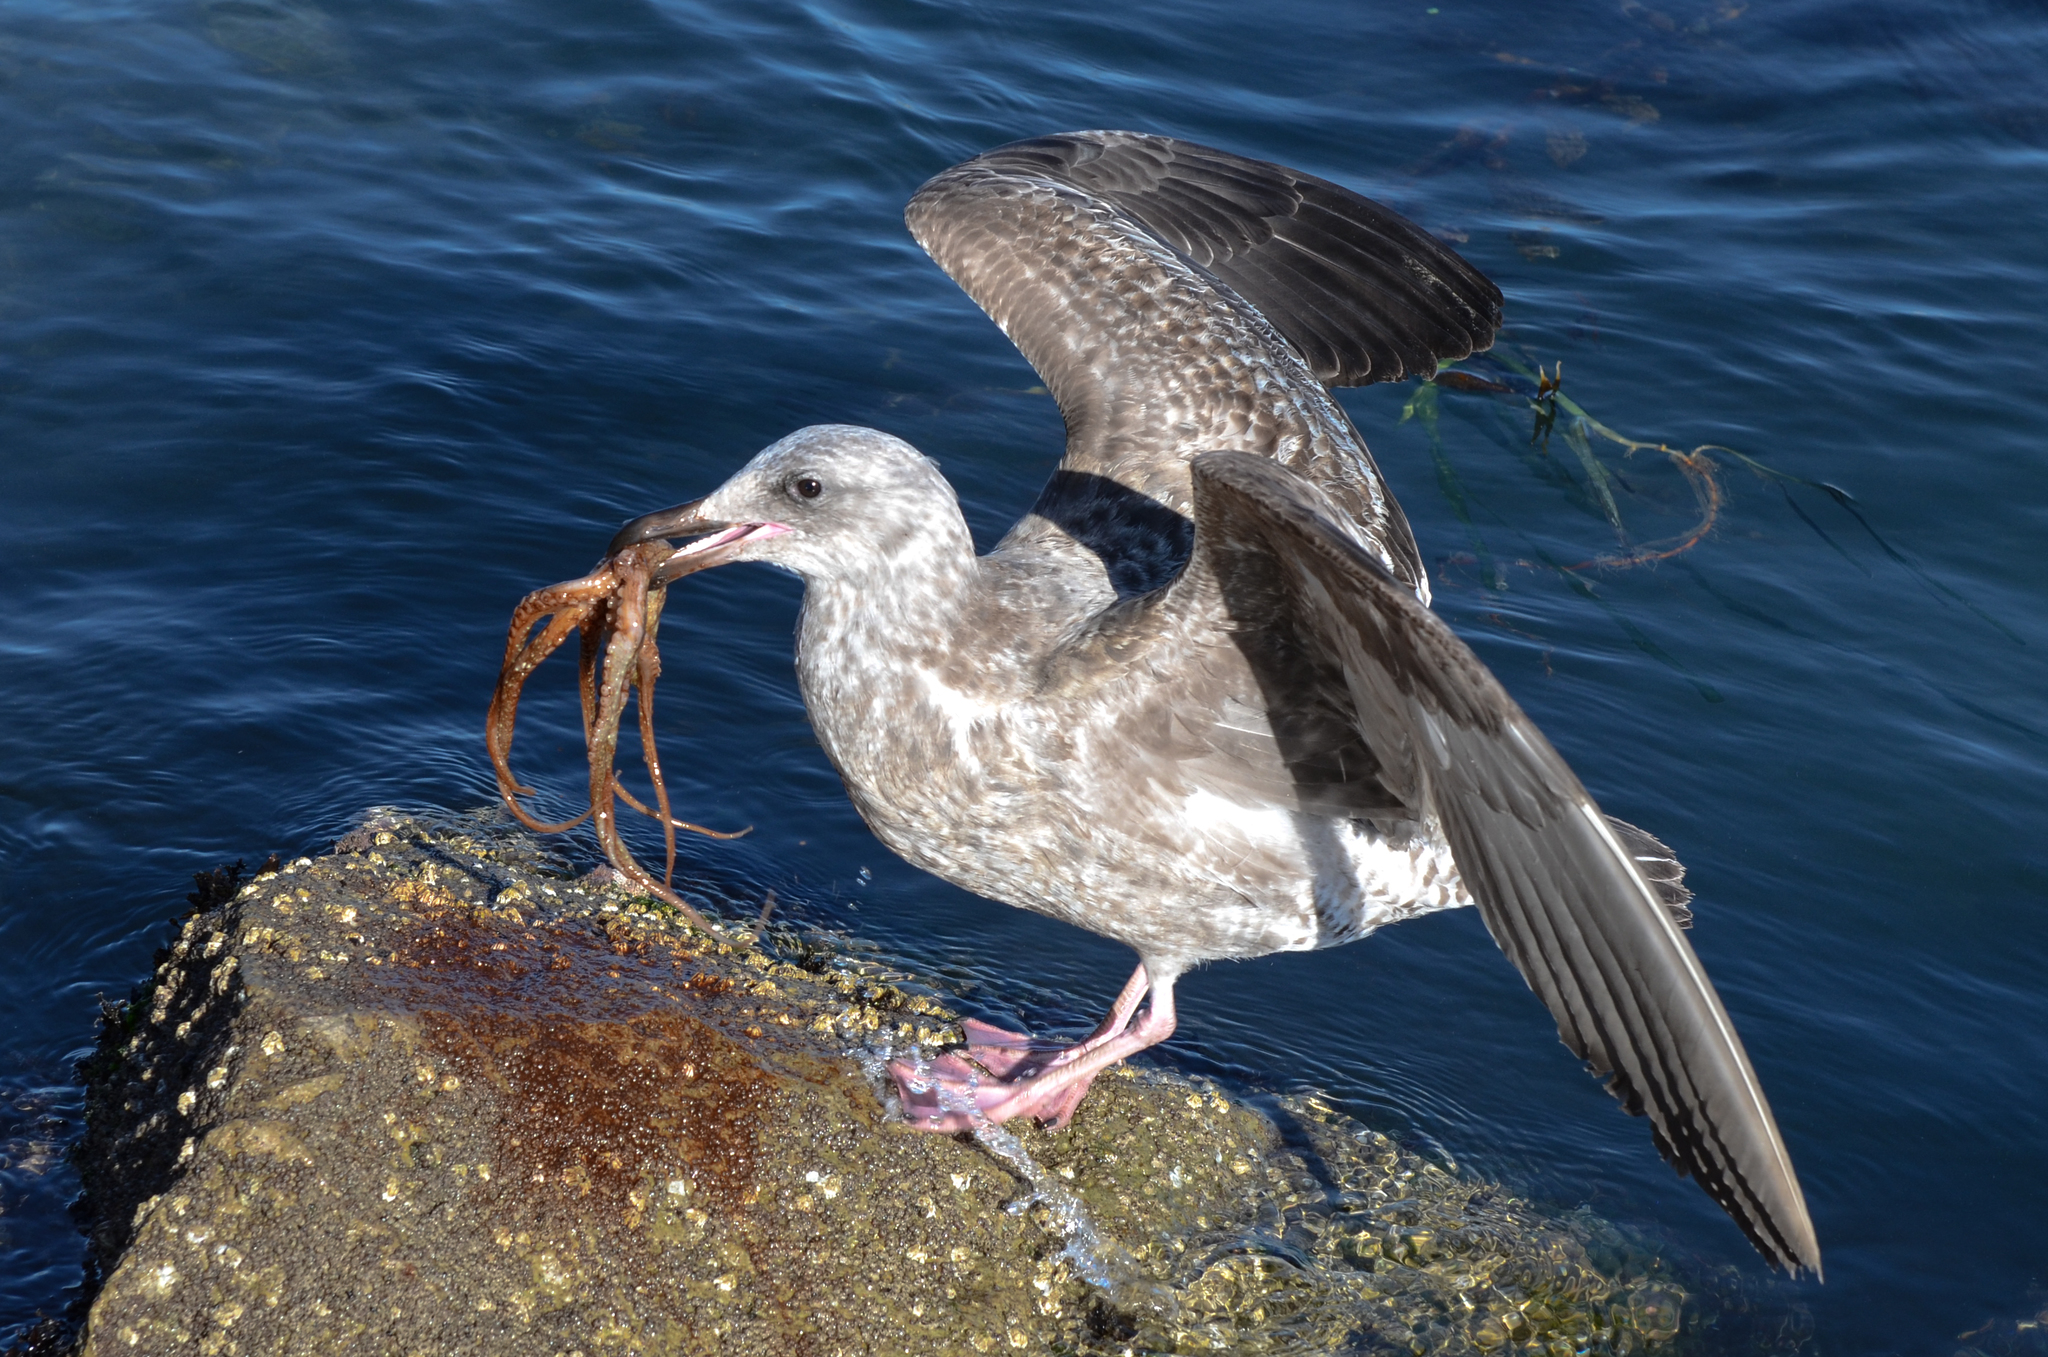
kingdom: Animalia
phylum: Chordata
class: Aves
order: Charadriiformes
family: Laridae
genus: Larus
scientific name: Larus occidentalis
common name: Western gull
